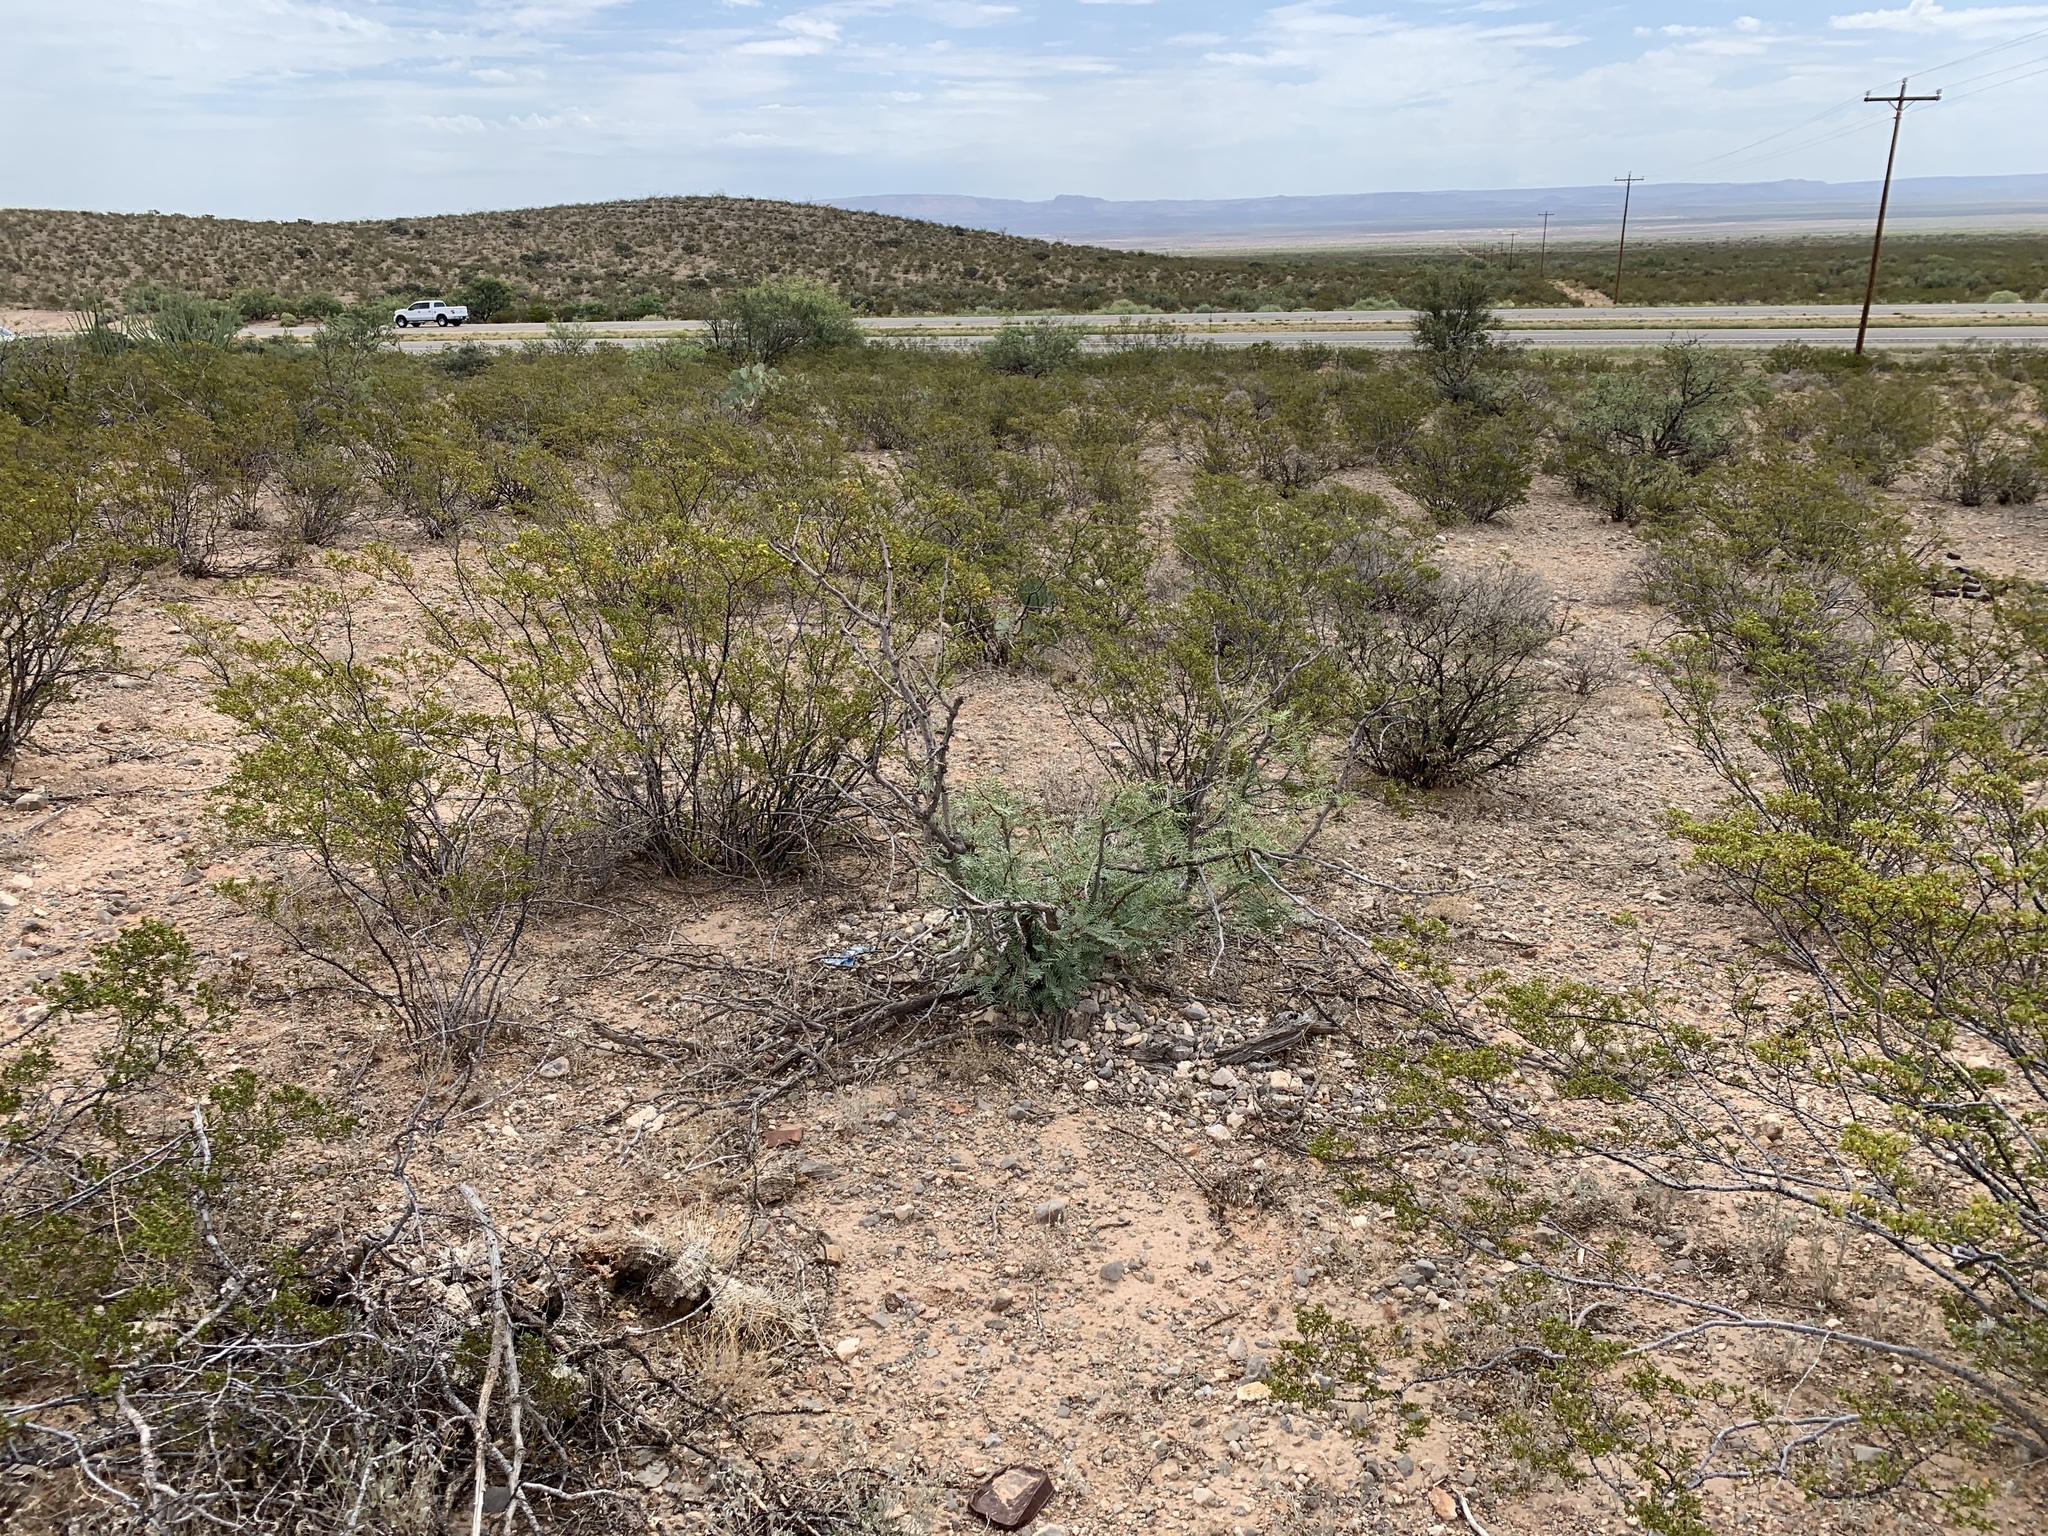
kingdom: Plantae
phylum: Tracheophyta
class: Magnoliopsida
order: Zygophyllales
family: Zygophyllaceae
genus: Larrea
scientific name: Larrea tridentata
